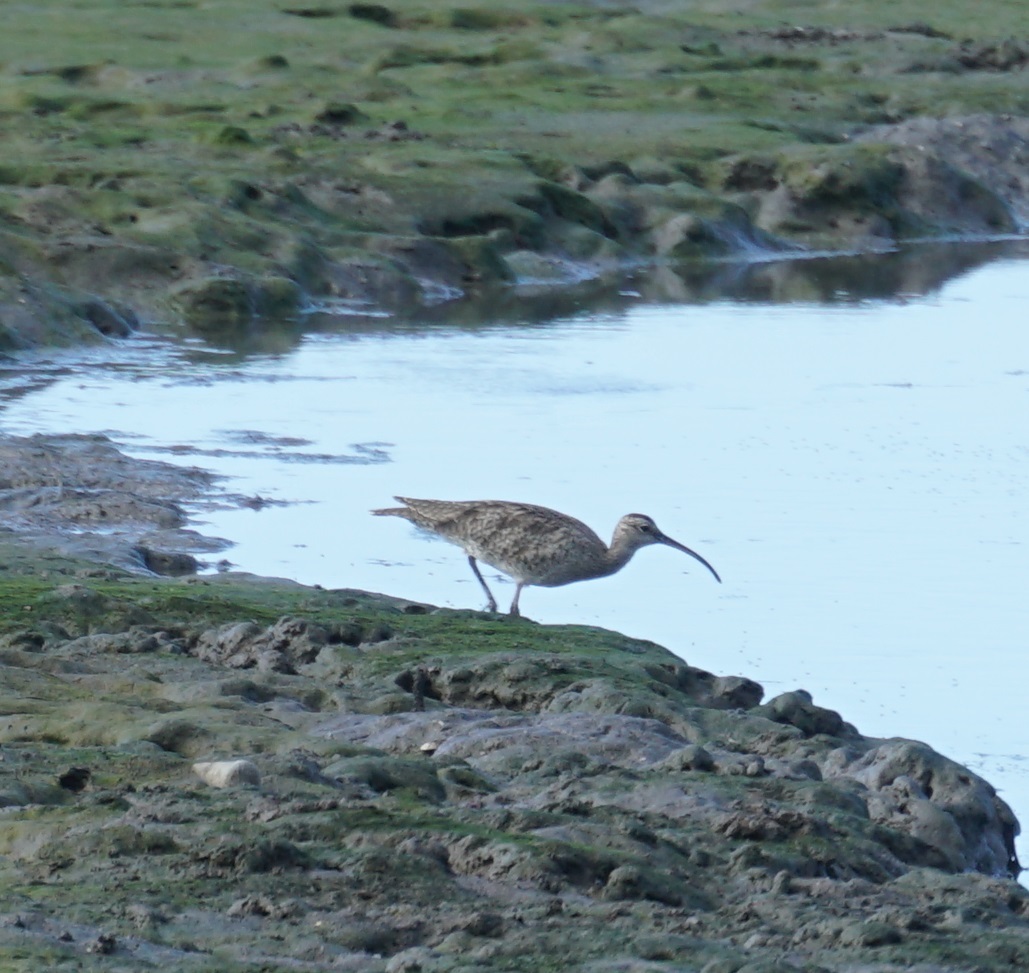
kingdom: Animalia
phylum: Chordata
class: Aves
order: Charadriiformes
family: Scolopacidae
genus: Numenius
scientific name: Numenius phaeopus
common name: Whimbrel
